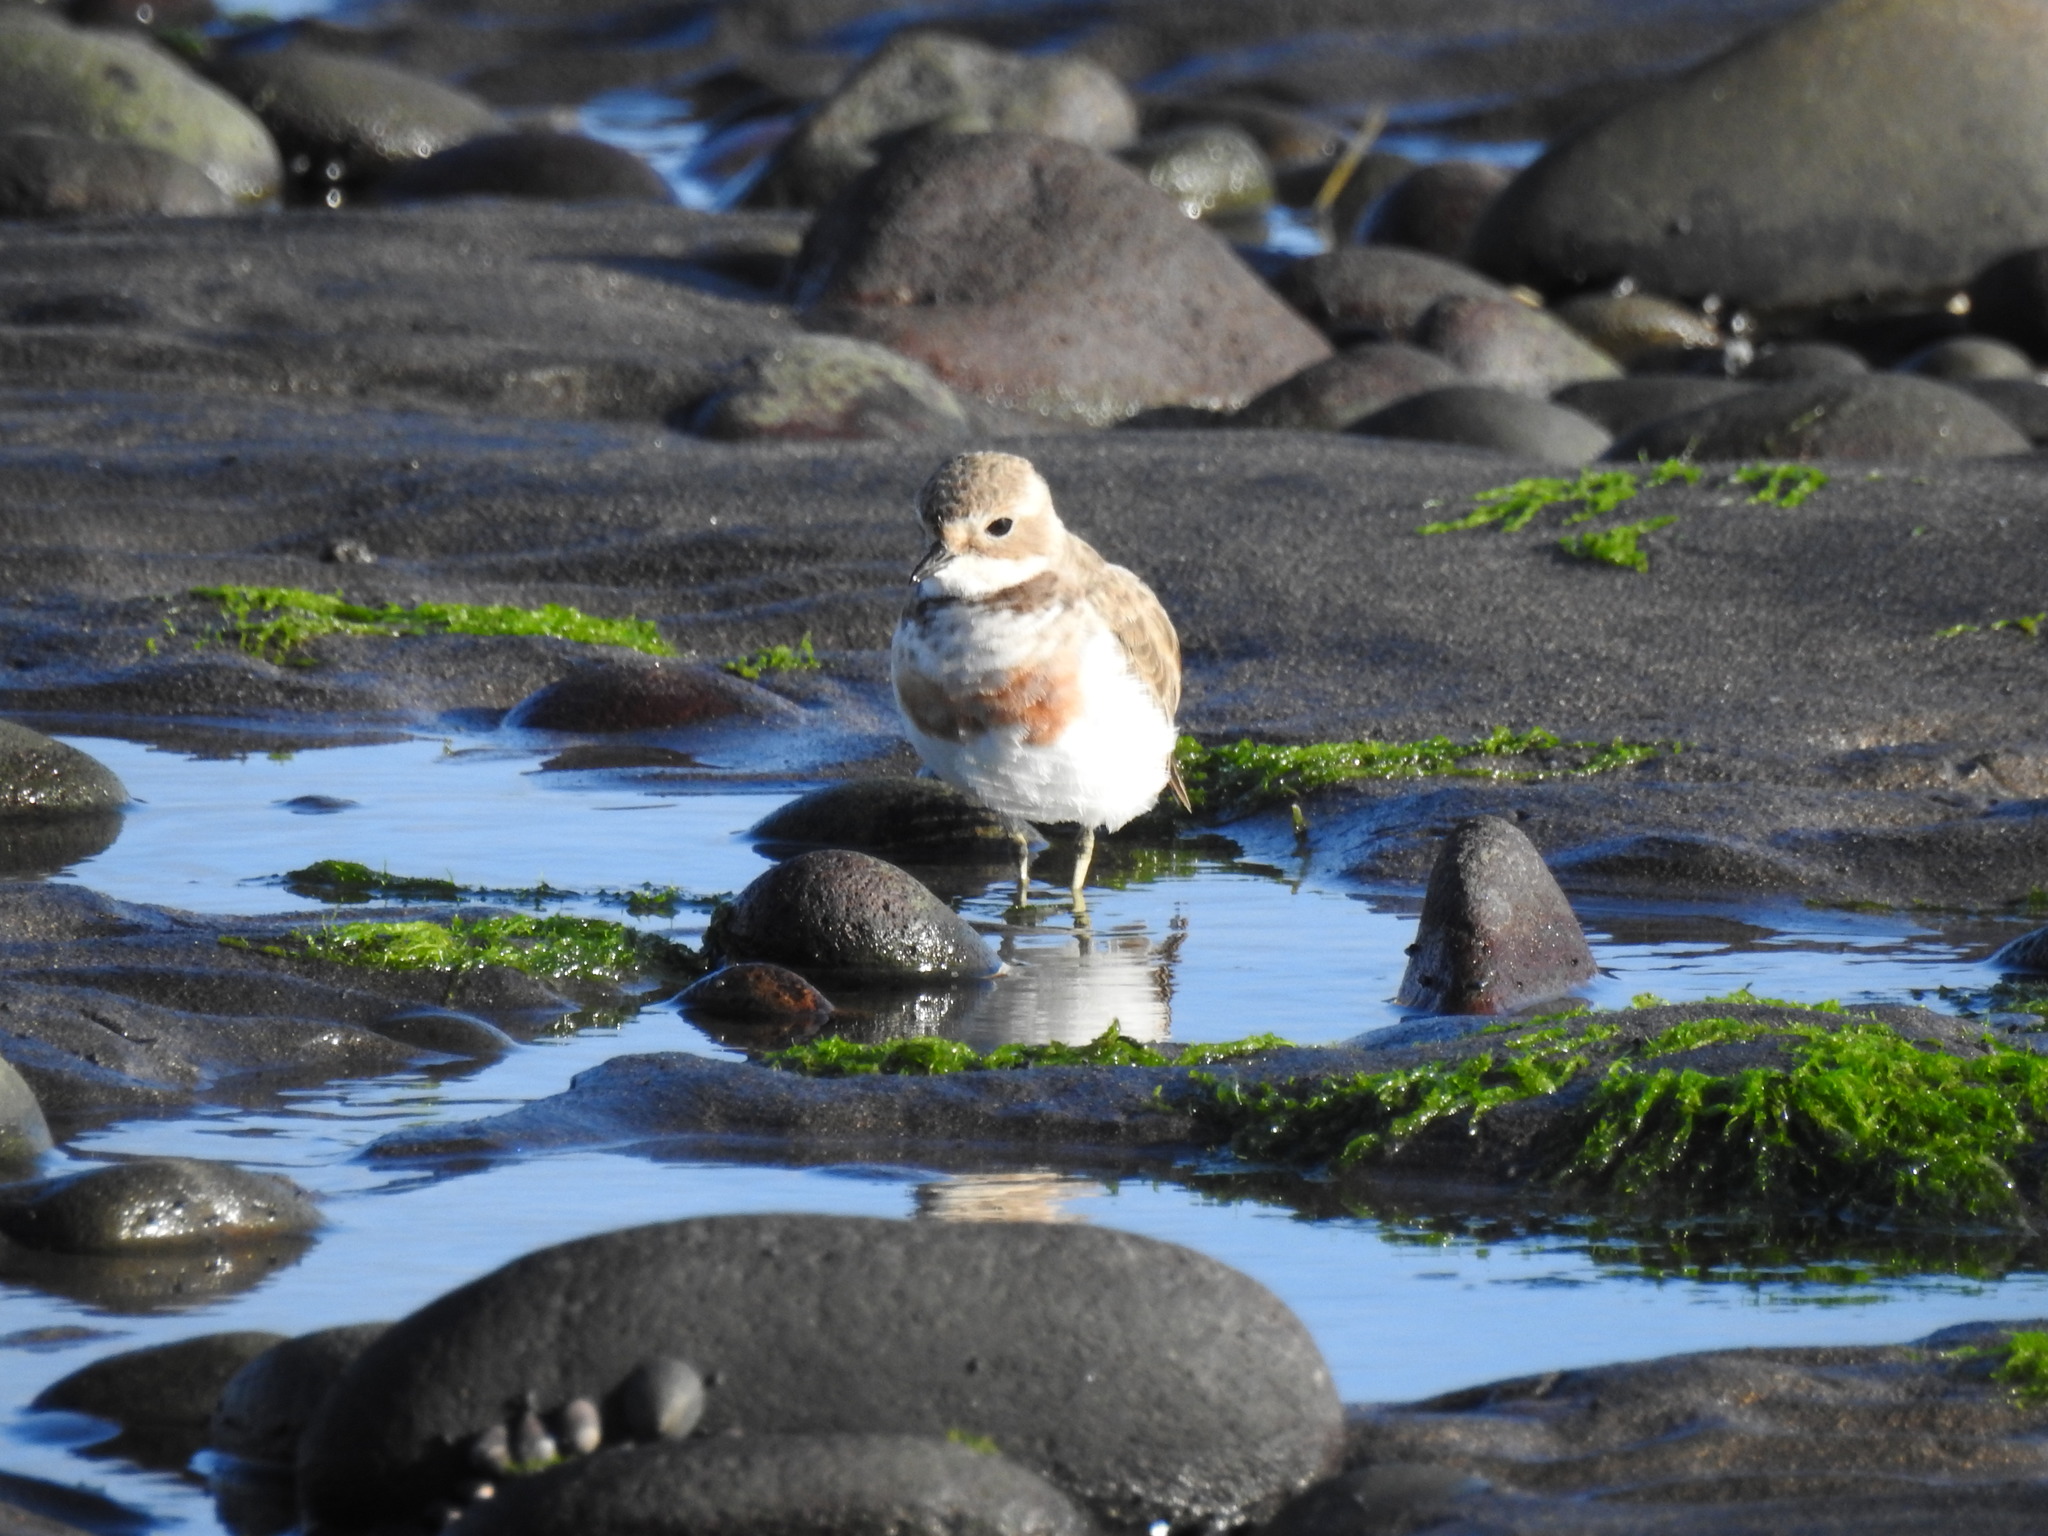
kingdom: Animalia
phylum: Chordata
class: Aves
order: Charadriiformes
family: Charadriidae
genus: Anarhynchus
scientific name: Anarhynchus
